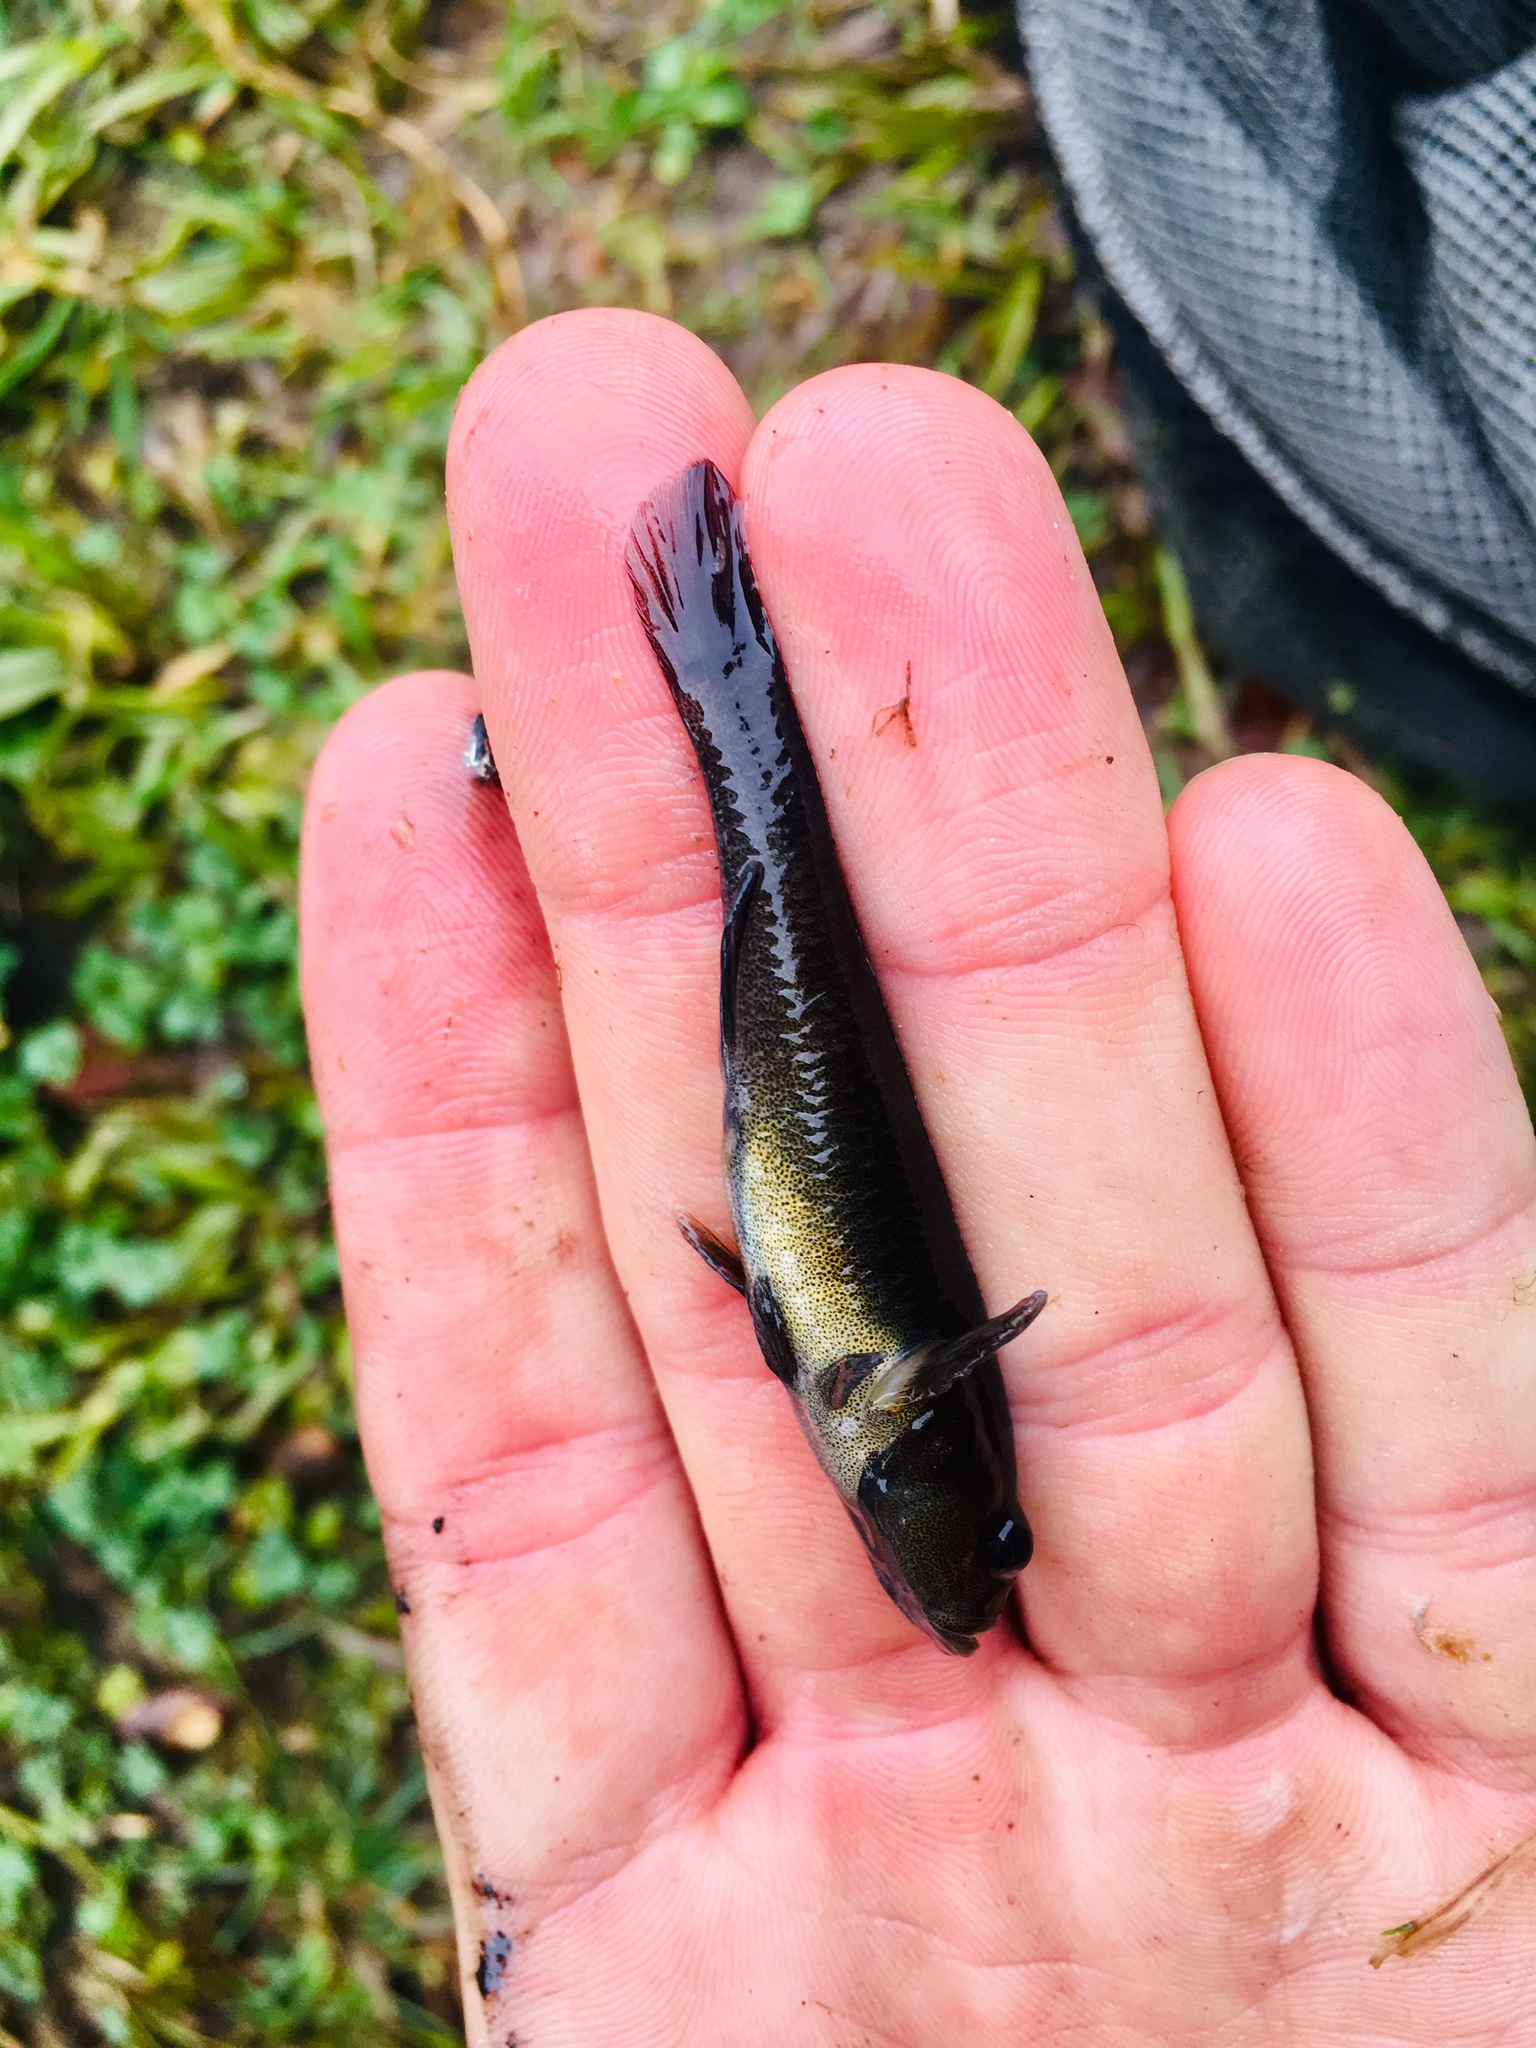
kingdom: Animalia
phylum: Chordata
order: Perciformes
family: Eleotridae
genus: Gobiomorphus
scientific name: Gobiomorphus cotidianus
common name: Common bully
